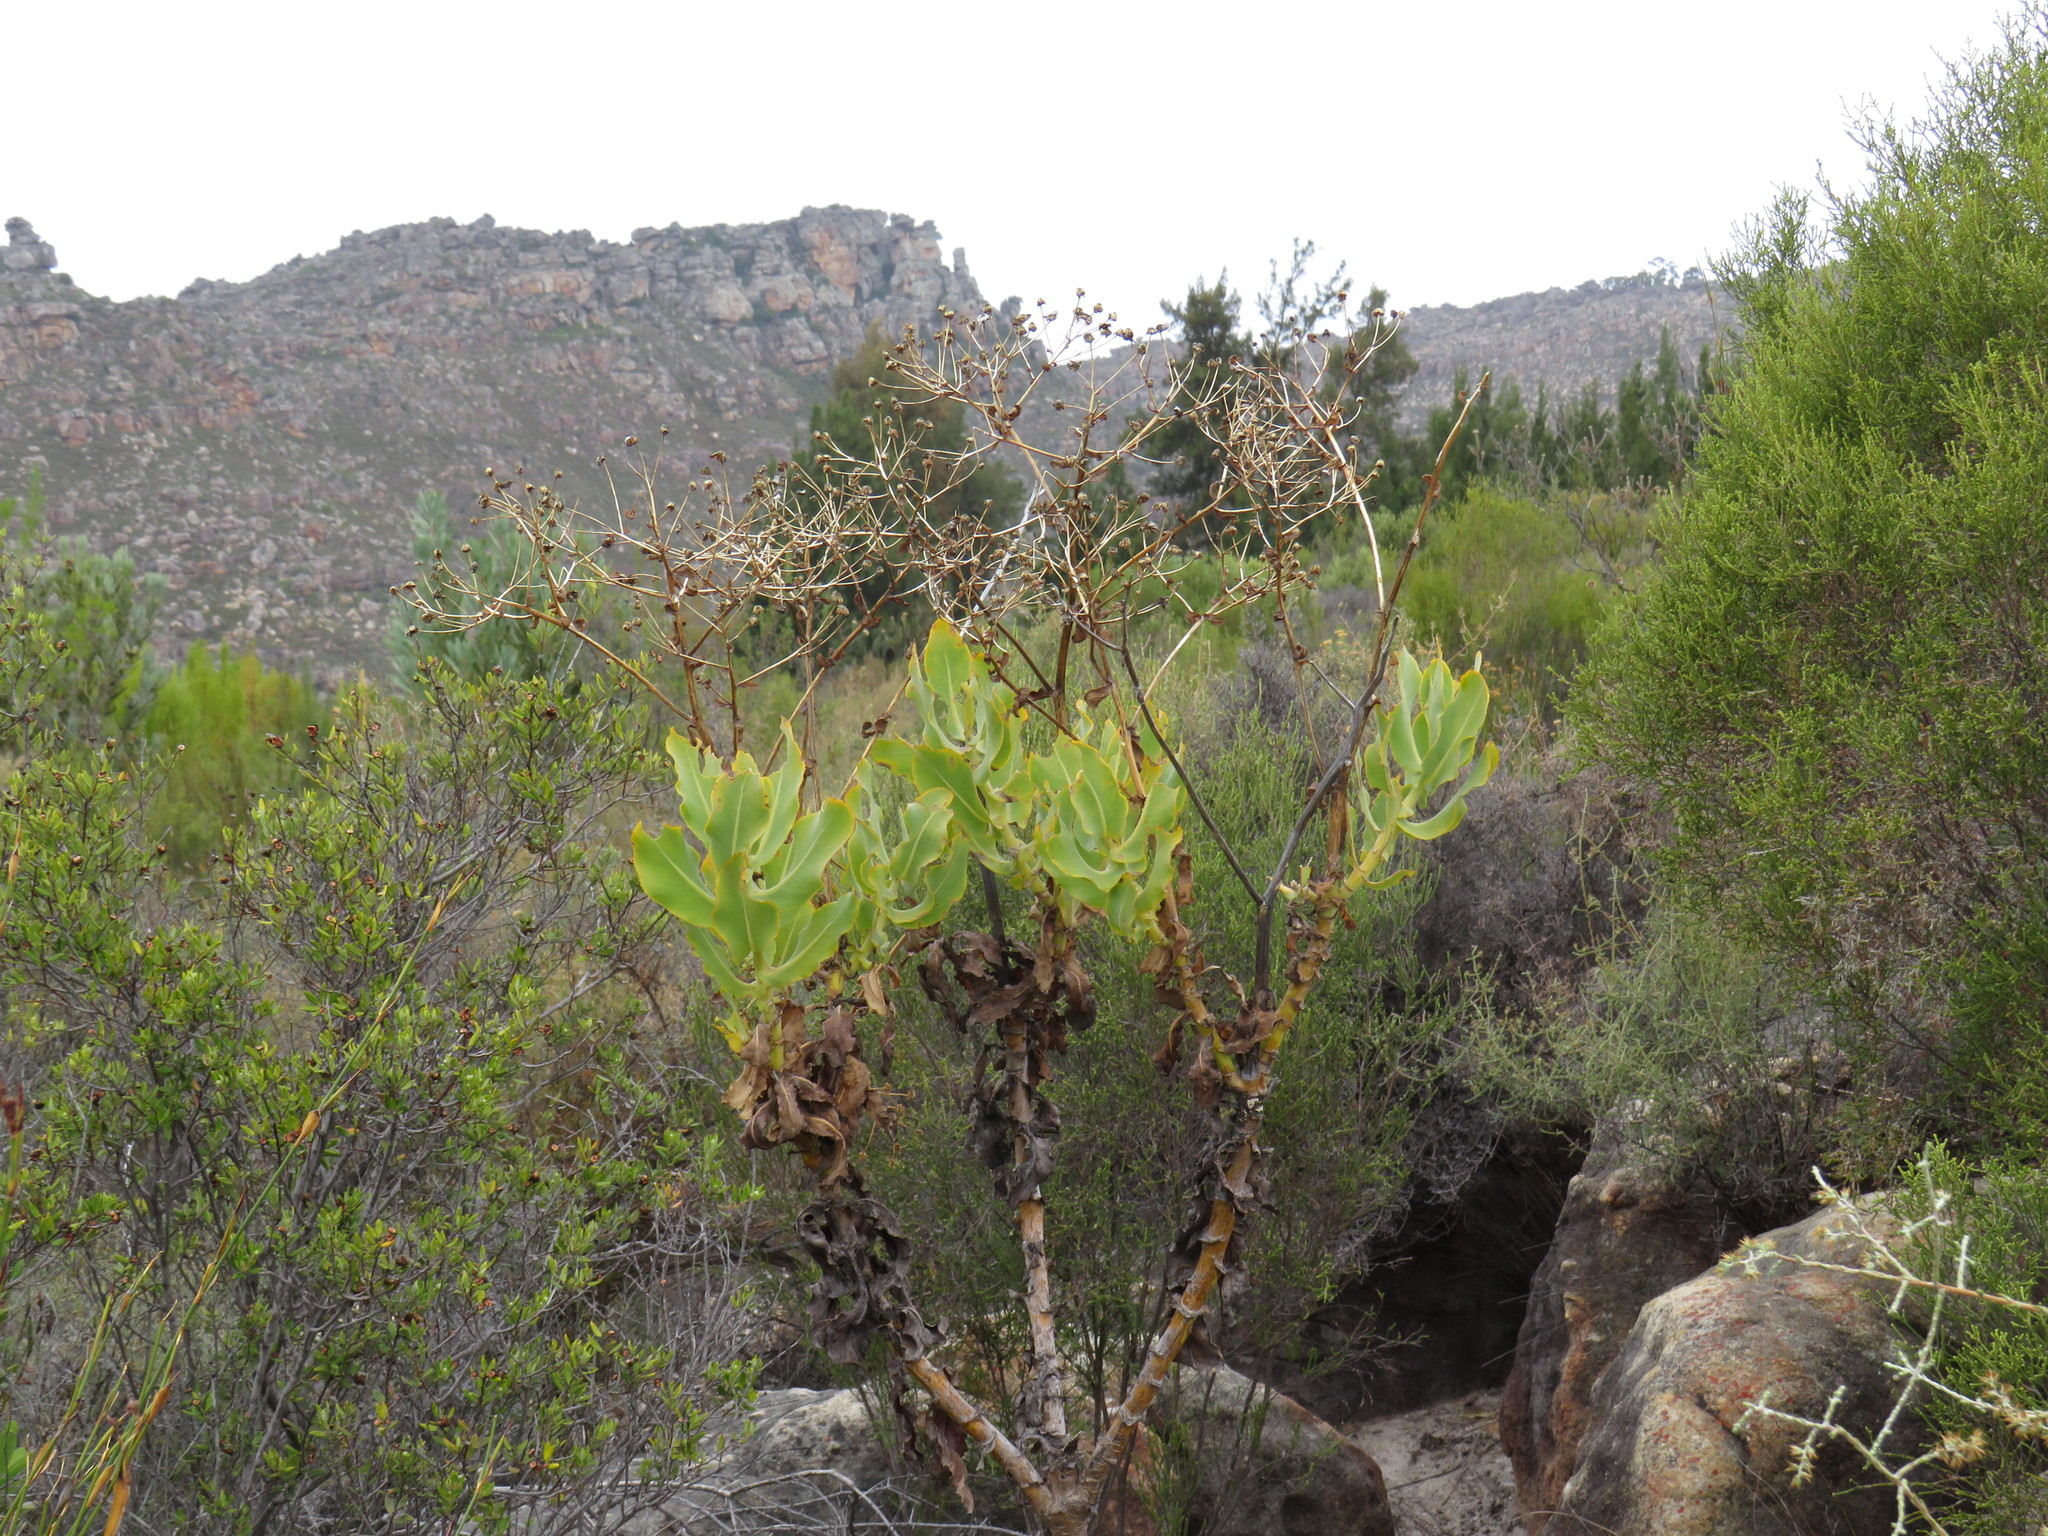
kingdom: Plantae
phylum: Tracheophyta
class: Magnoliopsida
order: Asterales
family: Asteraceae
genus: Othonna
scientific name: Othonna parviflora
